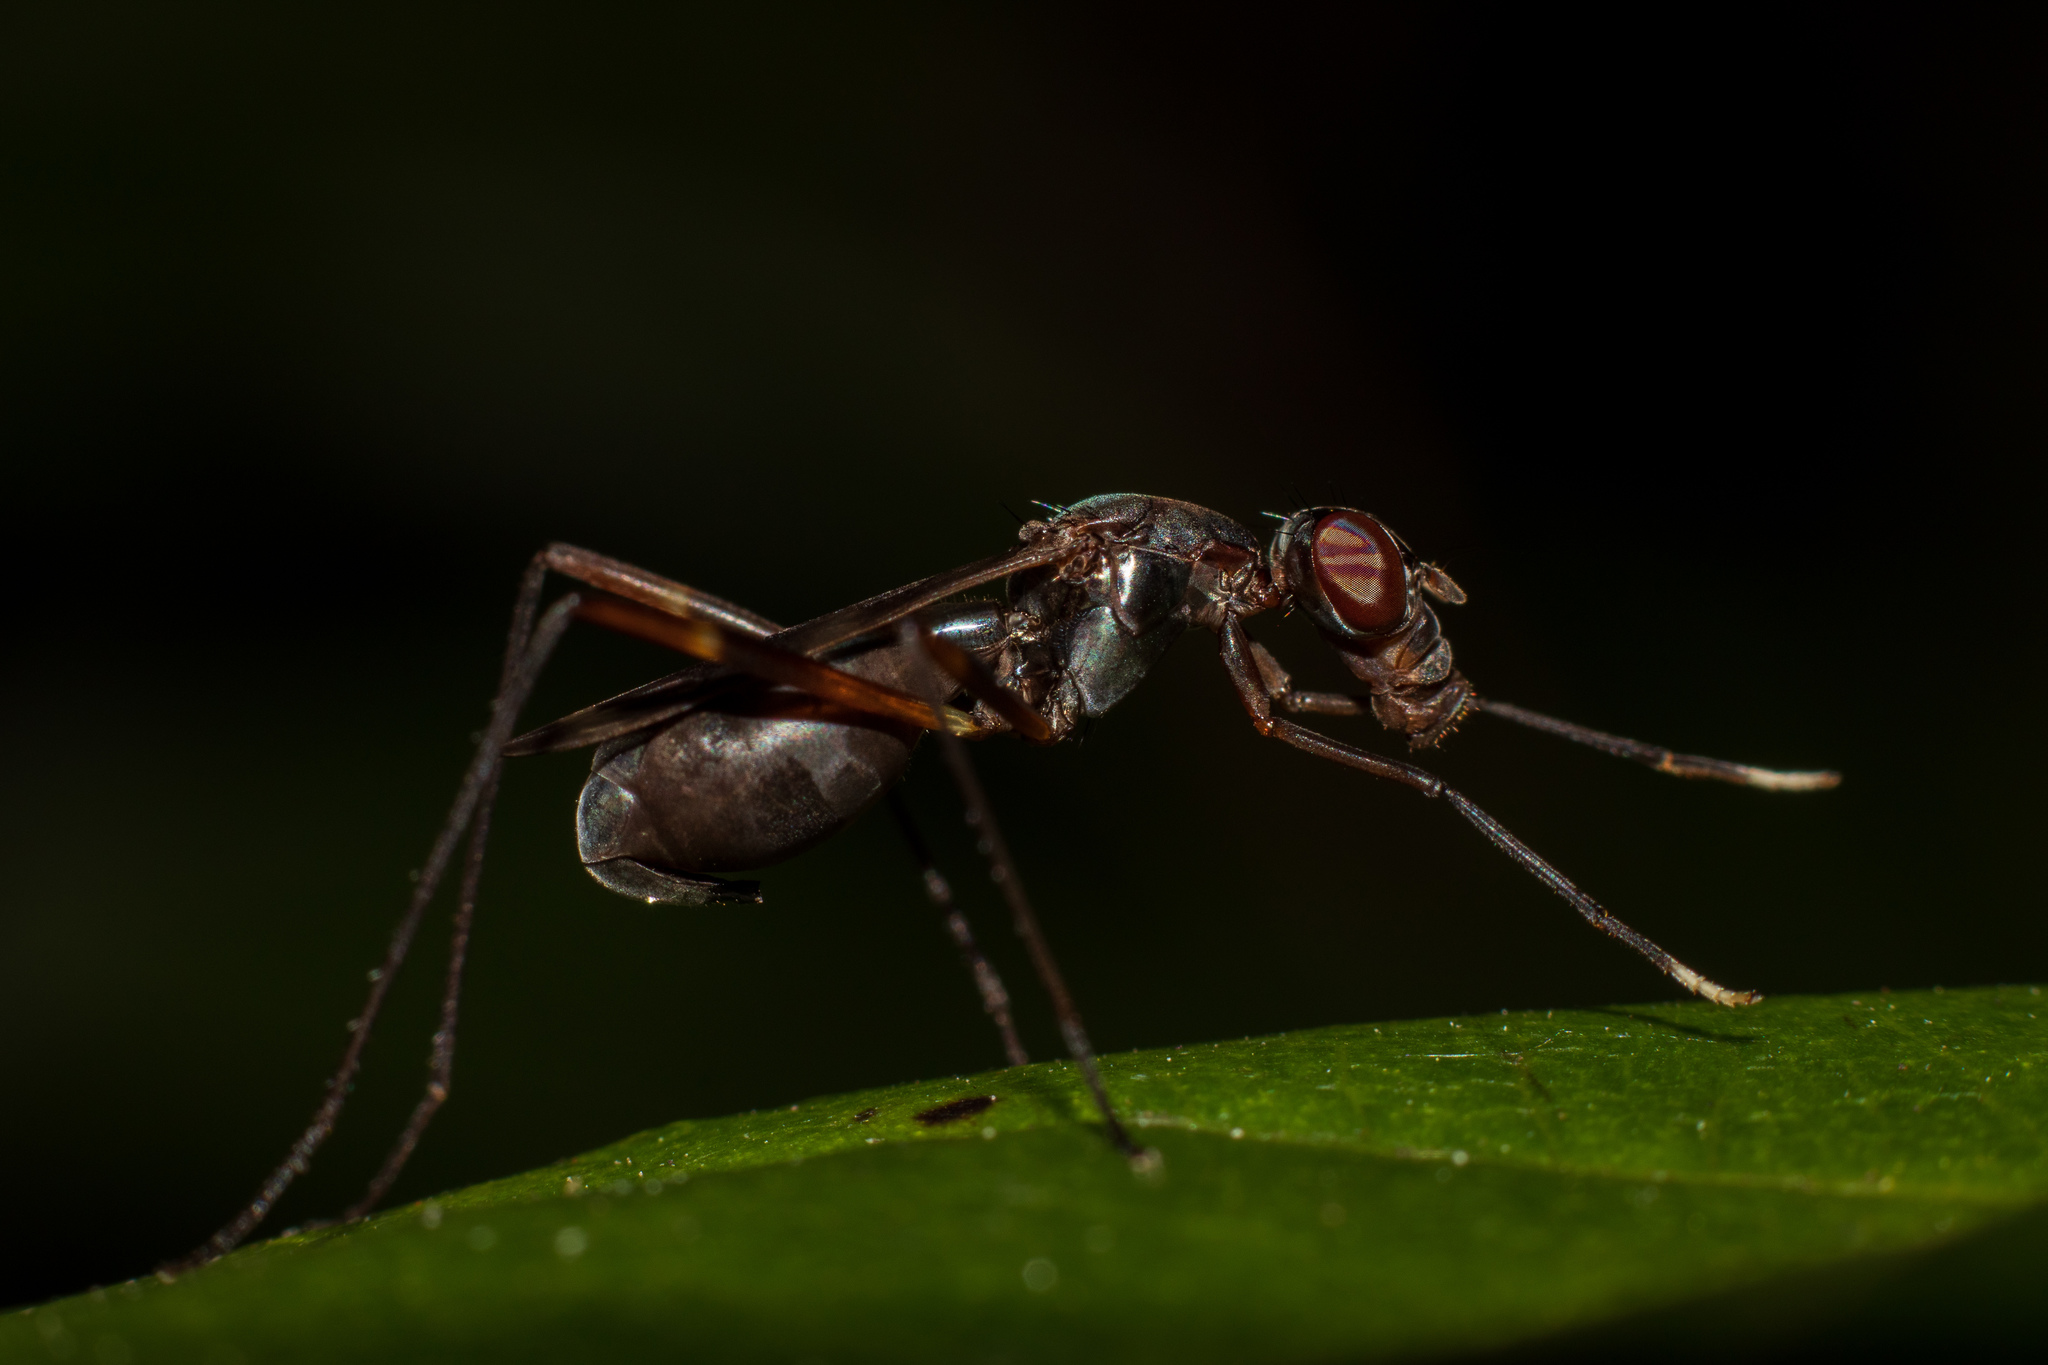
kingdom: Animalia
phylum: Arthropoda
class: Insecta
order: Diptera
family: Micropezidae
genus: Taeniaptera
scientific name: Taeniaptera trivittata
